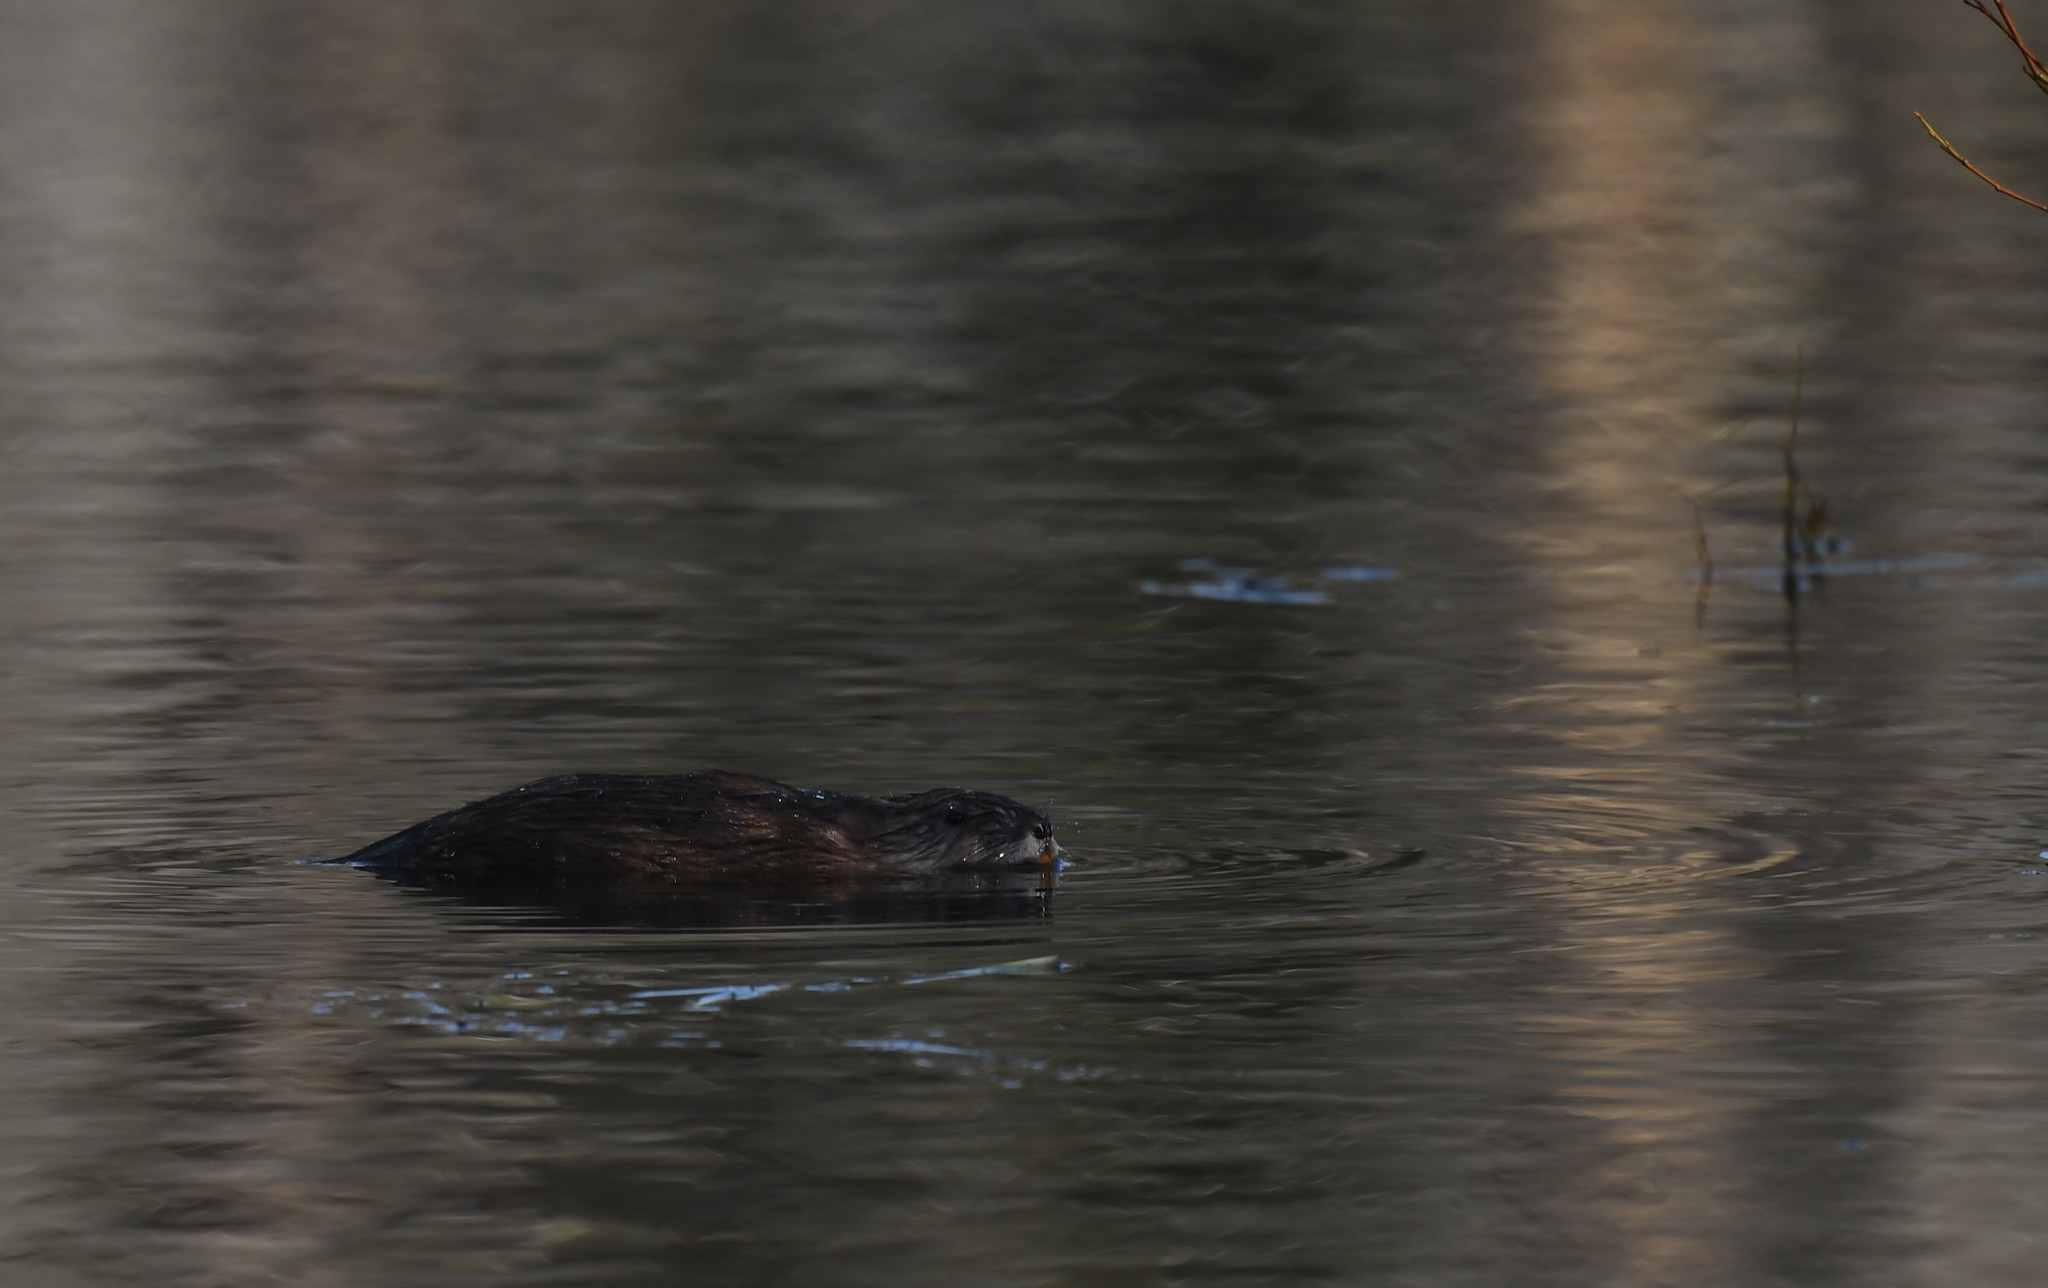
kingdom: Animalia
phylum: Chordata
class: Mammalia
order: Rodentia
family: Cricetidae
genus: Ondatra
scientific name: Ondatra zibethicus
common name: Muskrat
